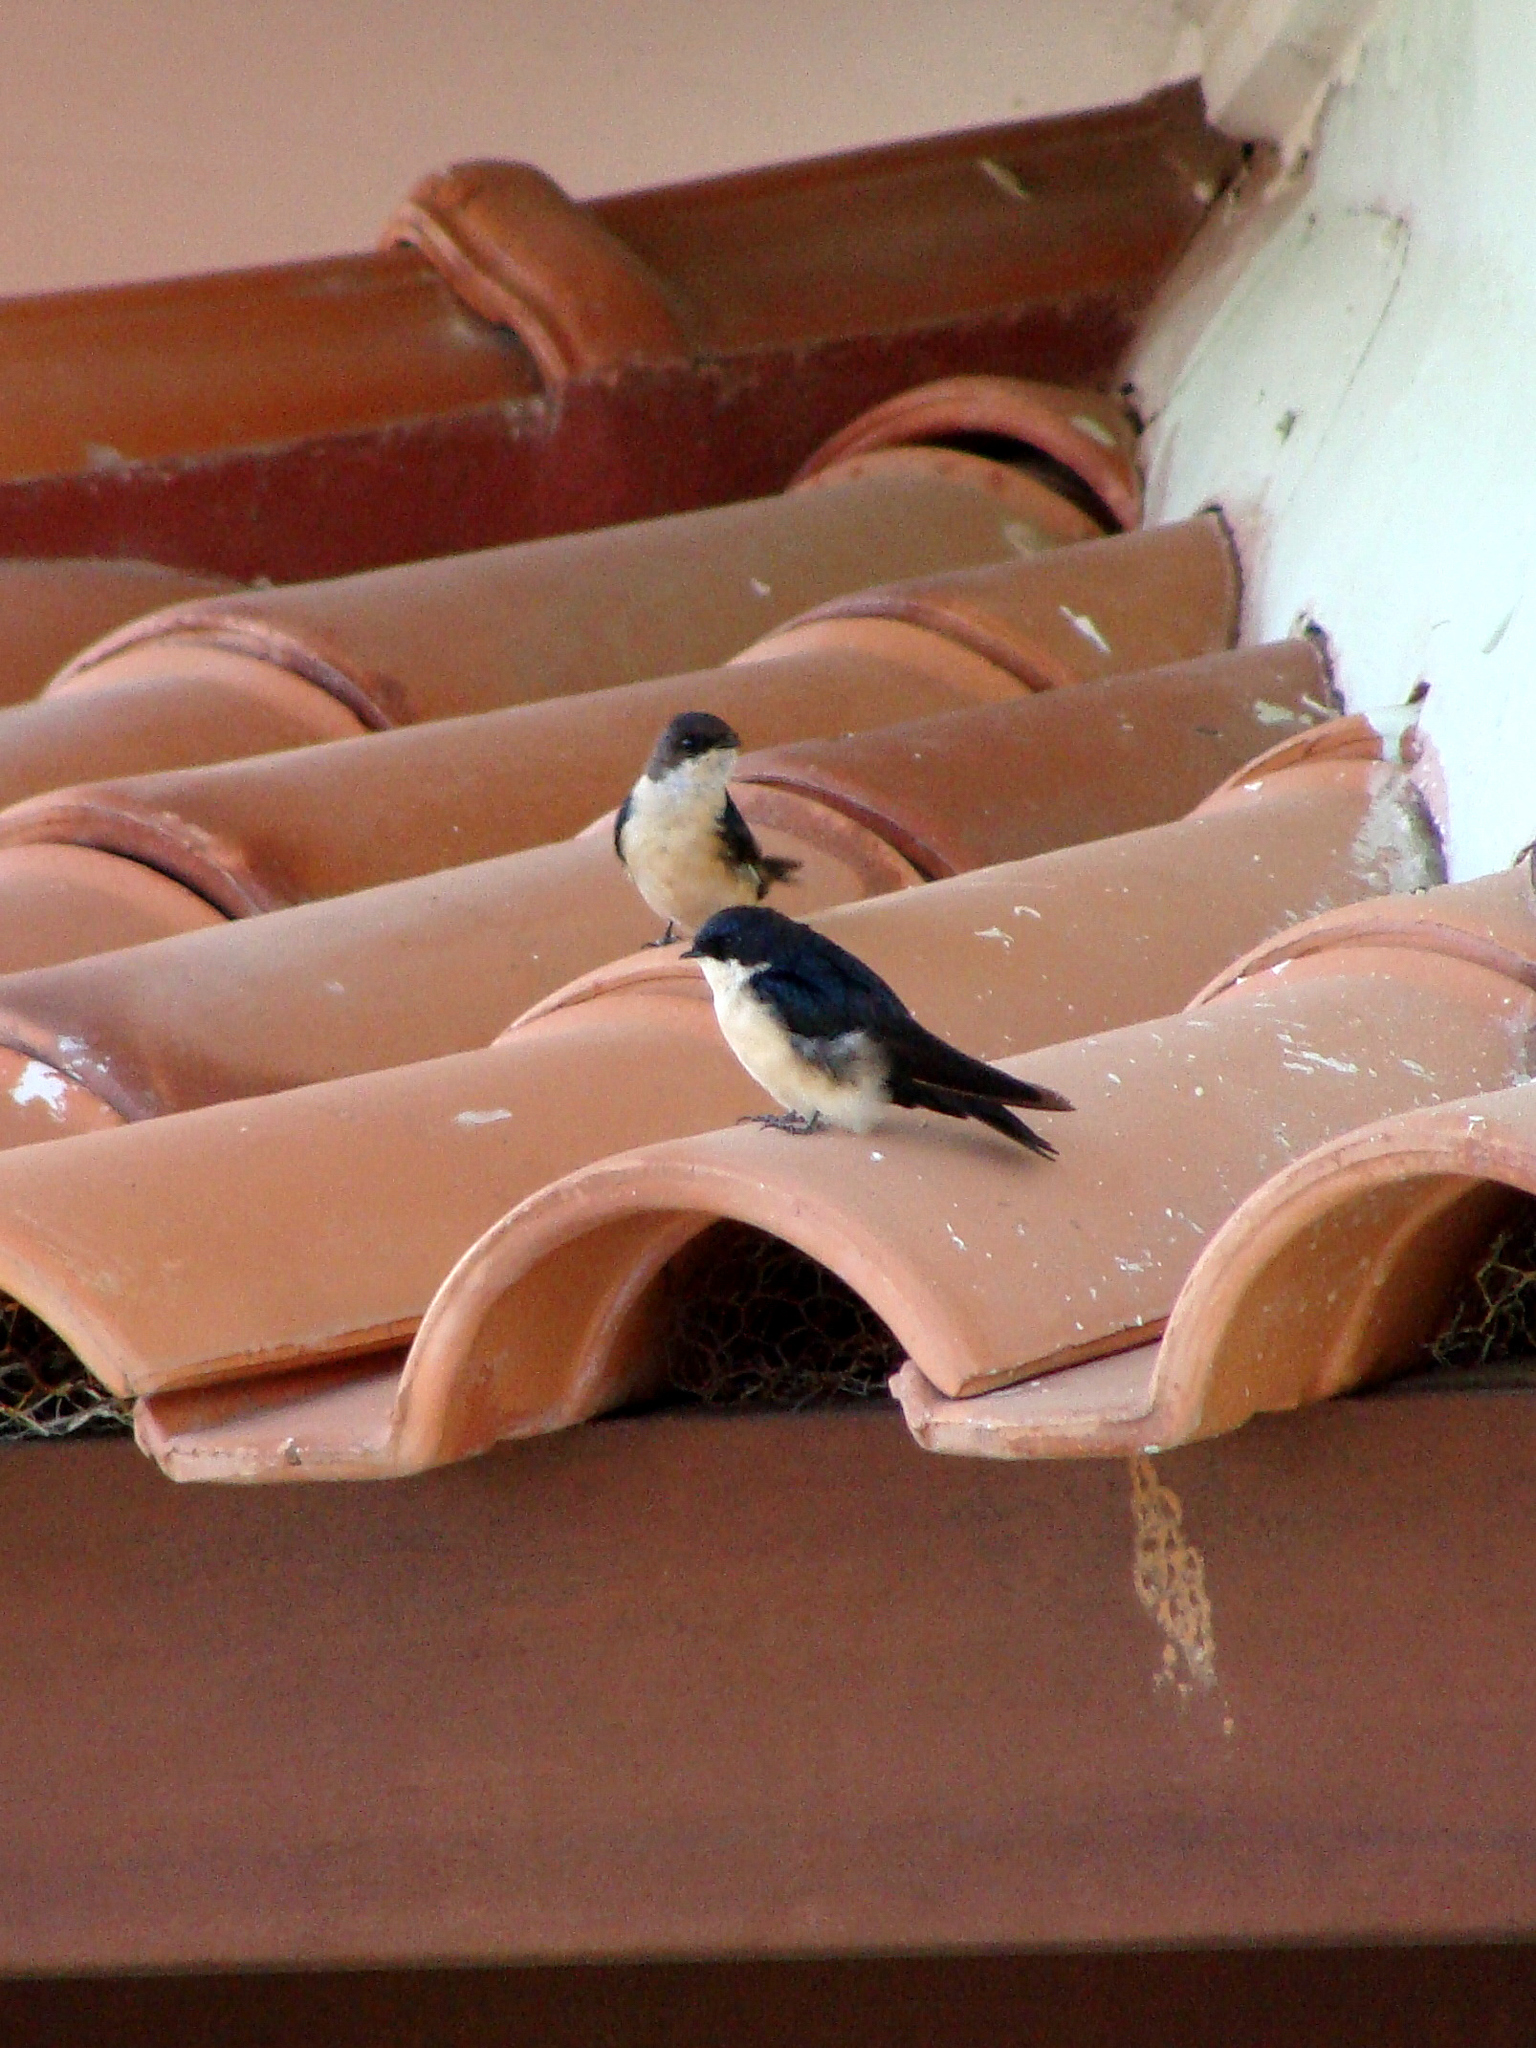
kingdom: Animalia
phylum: Chordata
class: Aves
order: Passeriformes
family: Hirundinidae
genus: Notiochelidon
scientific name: Notiochelidon cyanoleuca
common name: Blue-and-white swallow
